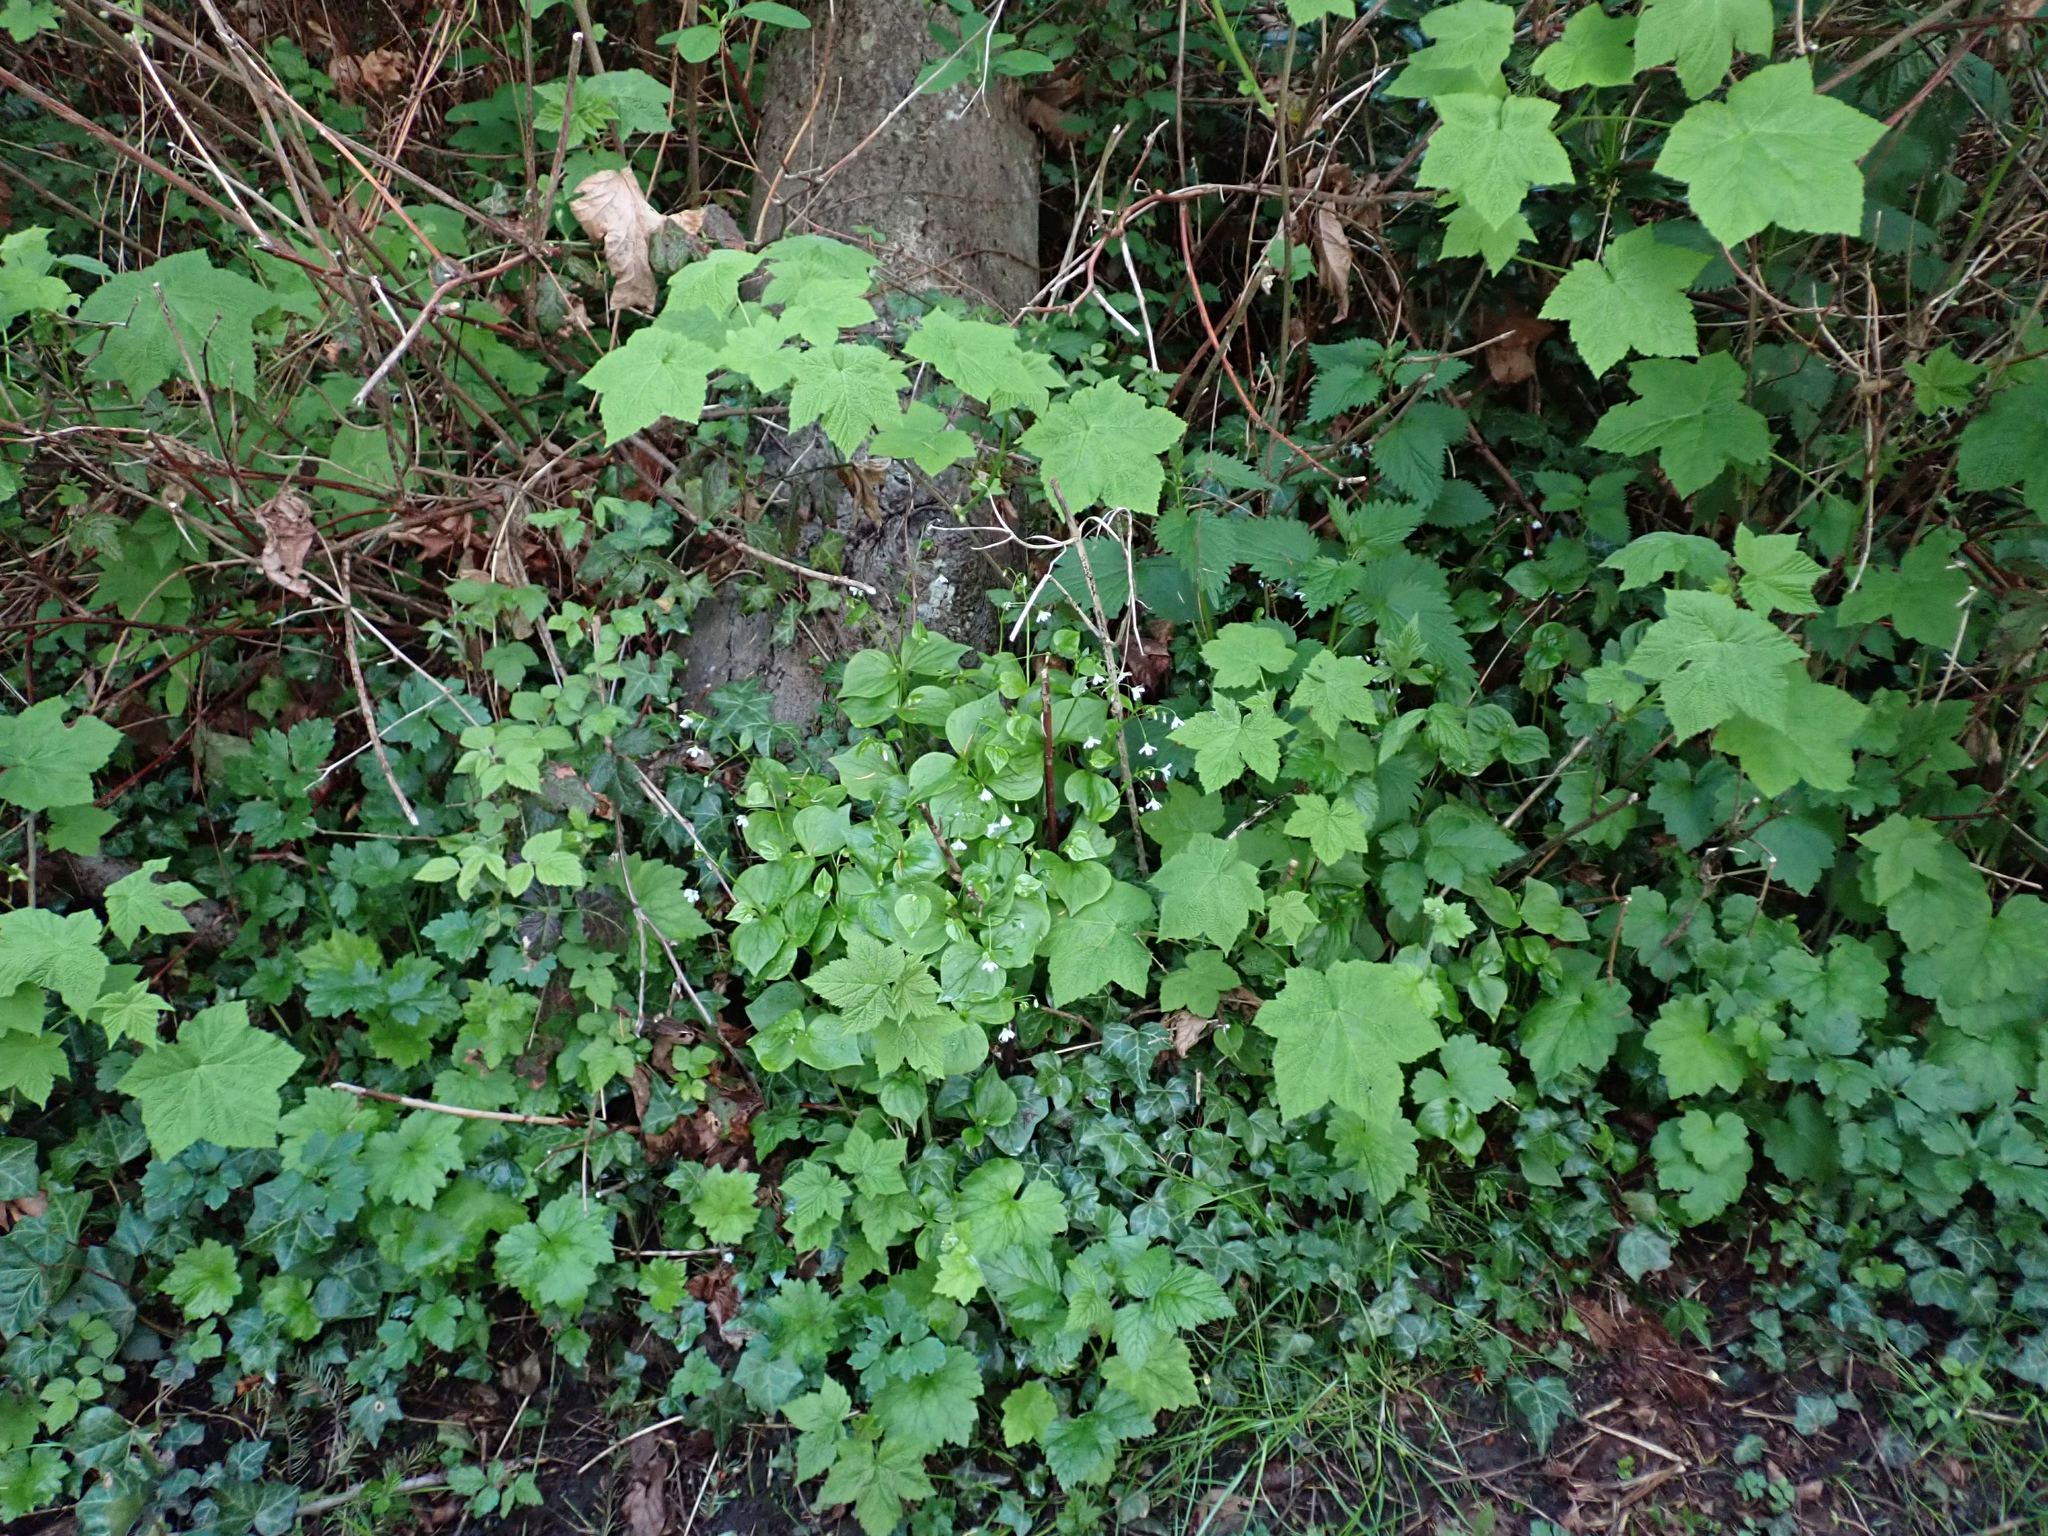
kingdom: Plantae
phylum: Tracheophyta
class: Magnoliopsida
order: Caryophyllales
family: Montiaceae
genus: Claytonia
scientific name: Claytonia sibirica
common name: Pink purslane
